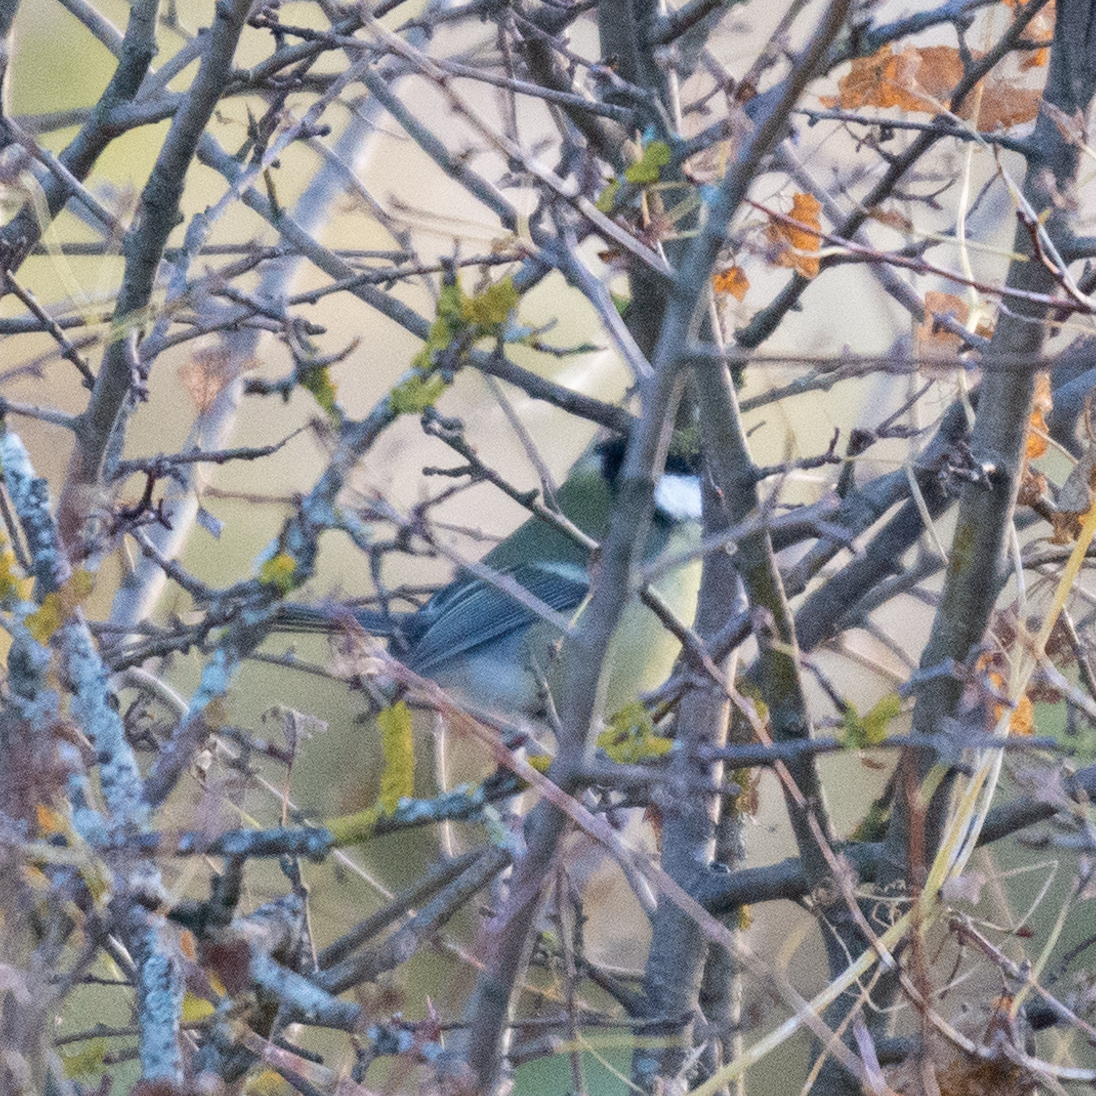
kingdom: Animalia
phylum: Chordata
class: Aves
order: Passeriformes
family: Paridae
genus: Parus
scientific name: Parus major
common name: Great tit
